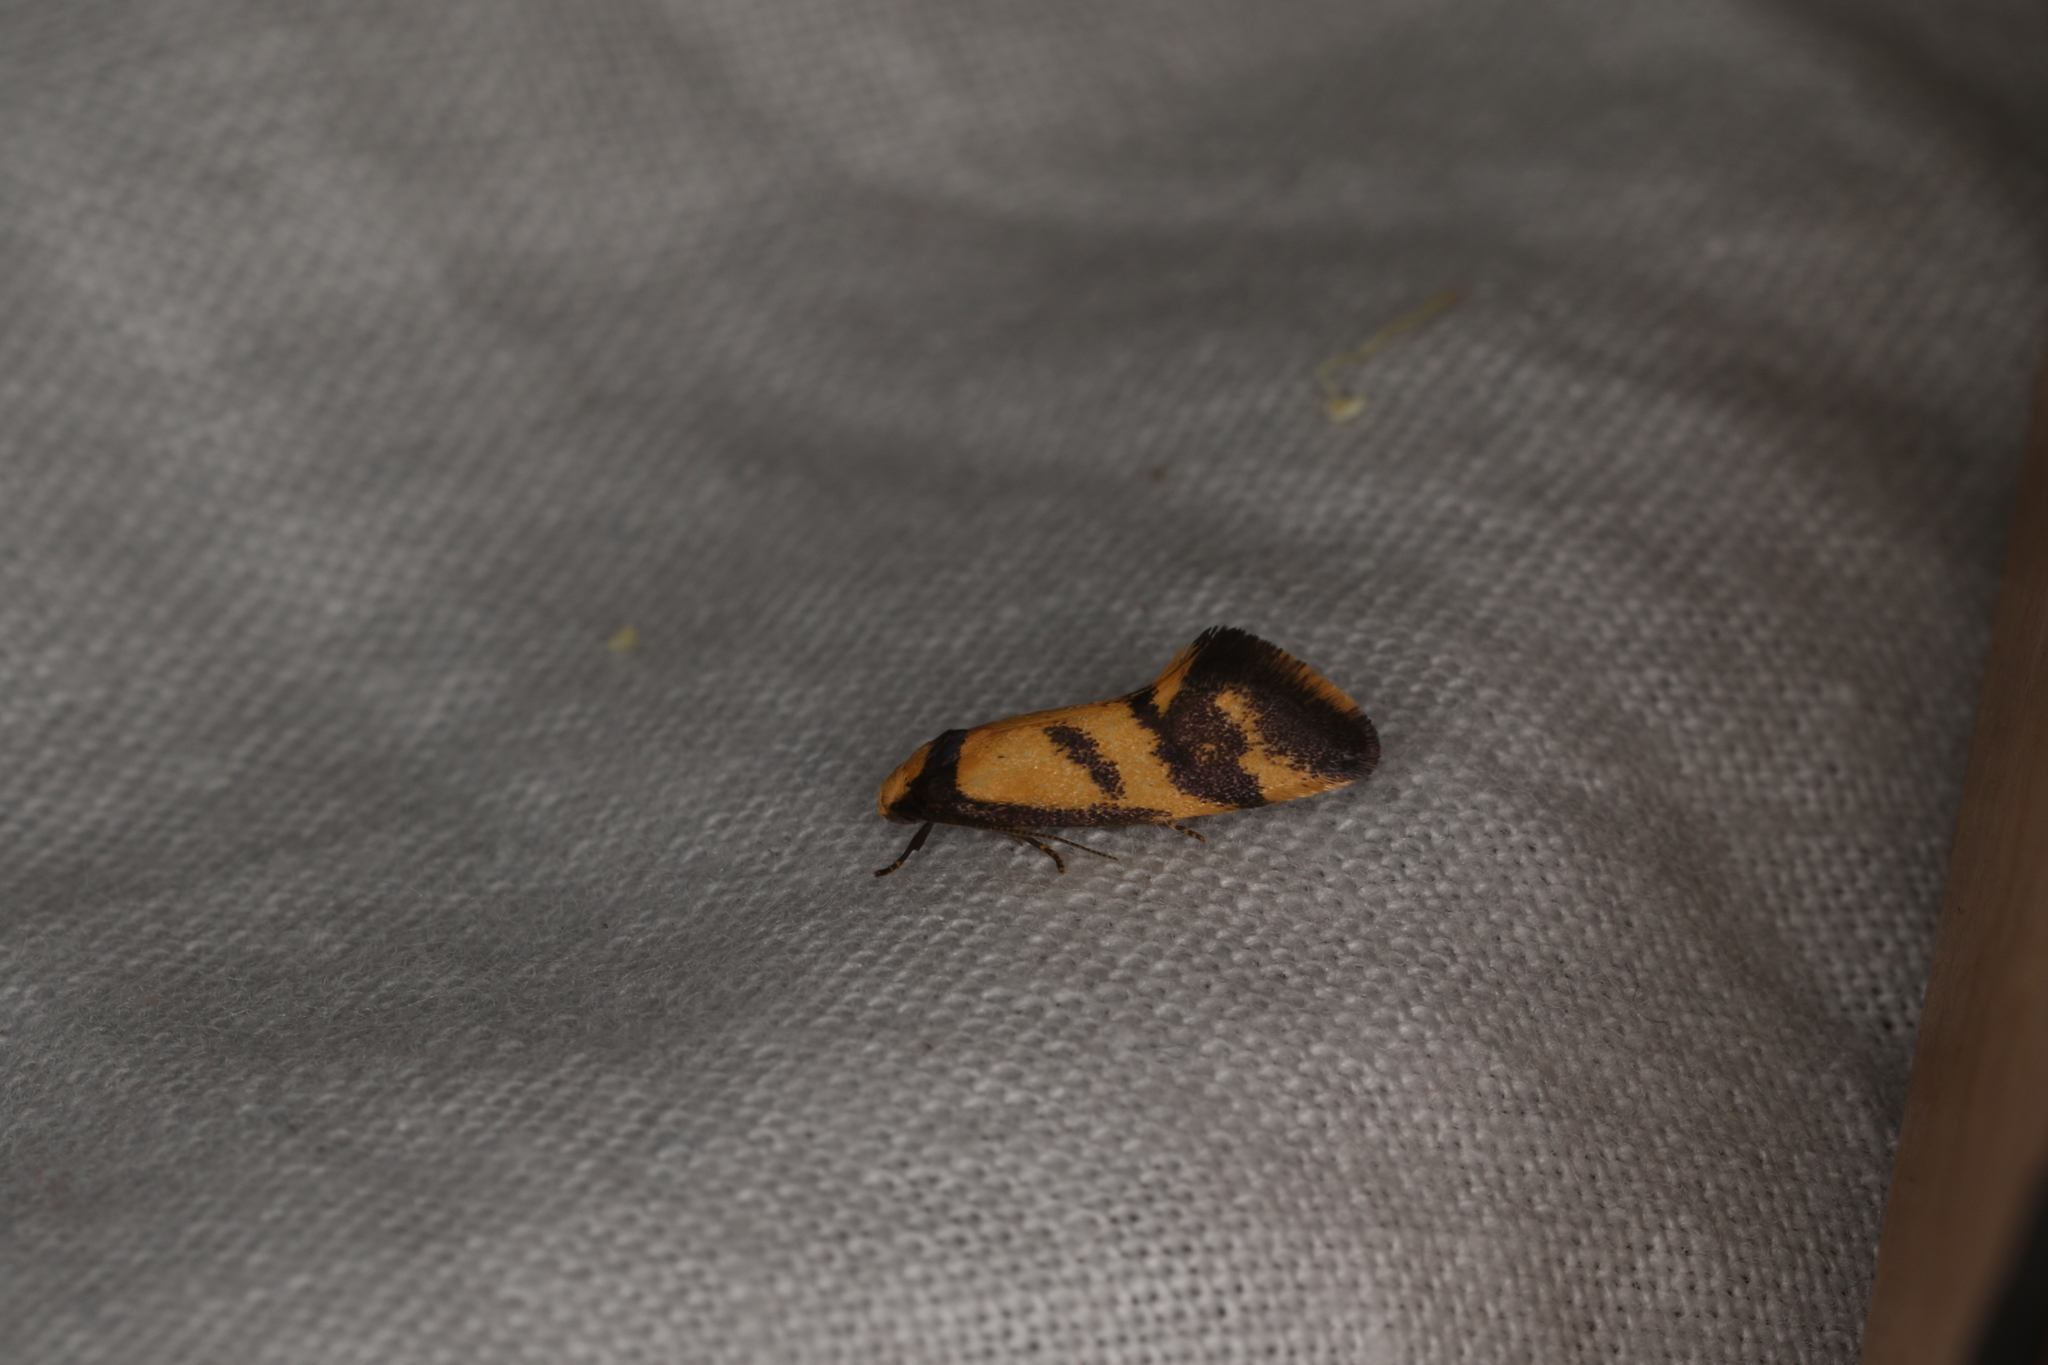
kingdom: Animalia
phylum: Arthropoda
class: Insecta
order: Lepidoptera
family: Oecophoridae
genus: Olbonoma
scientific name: Olbonoma triptycha
